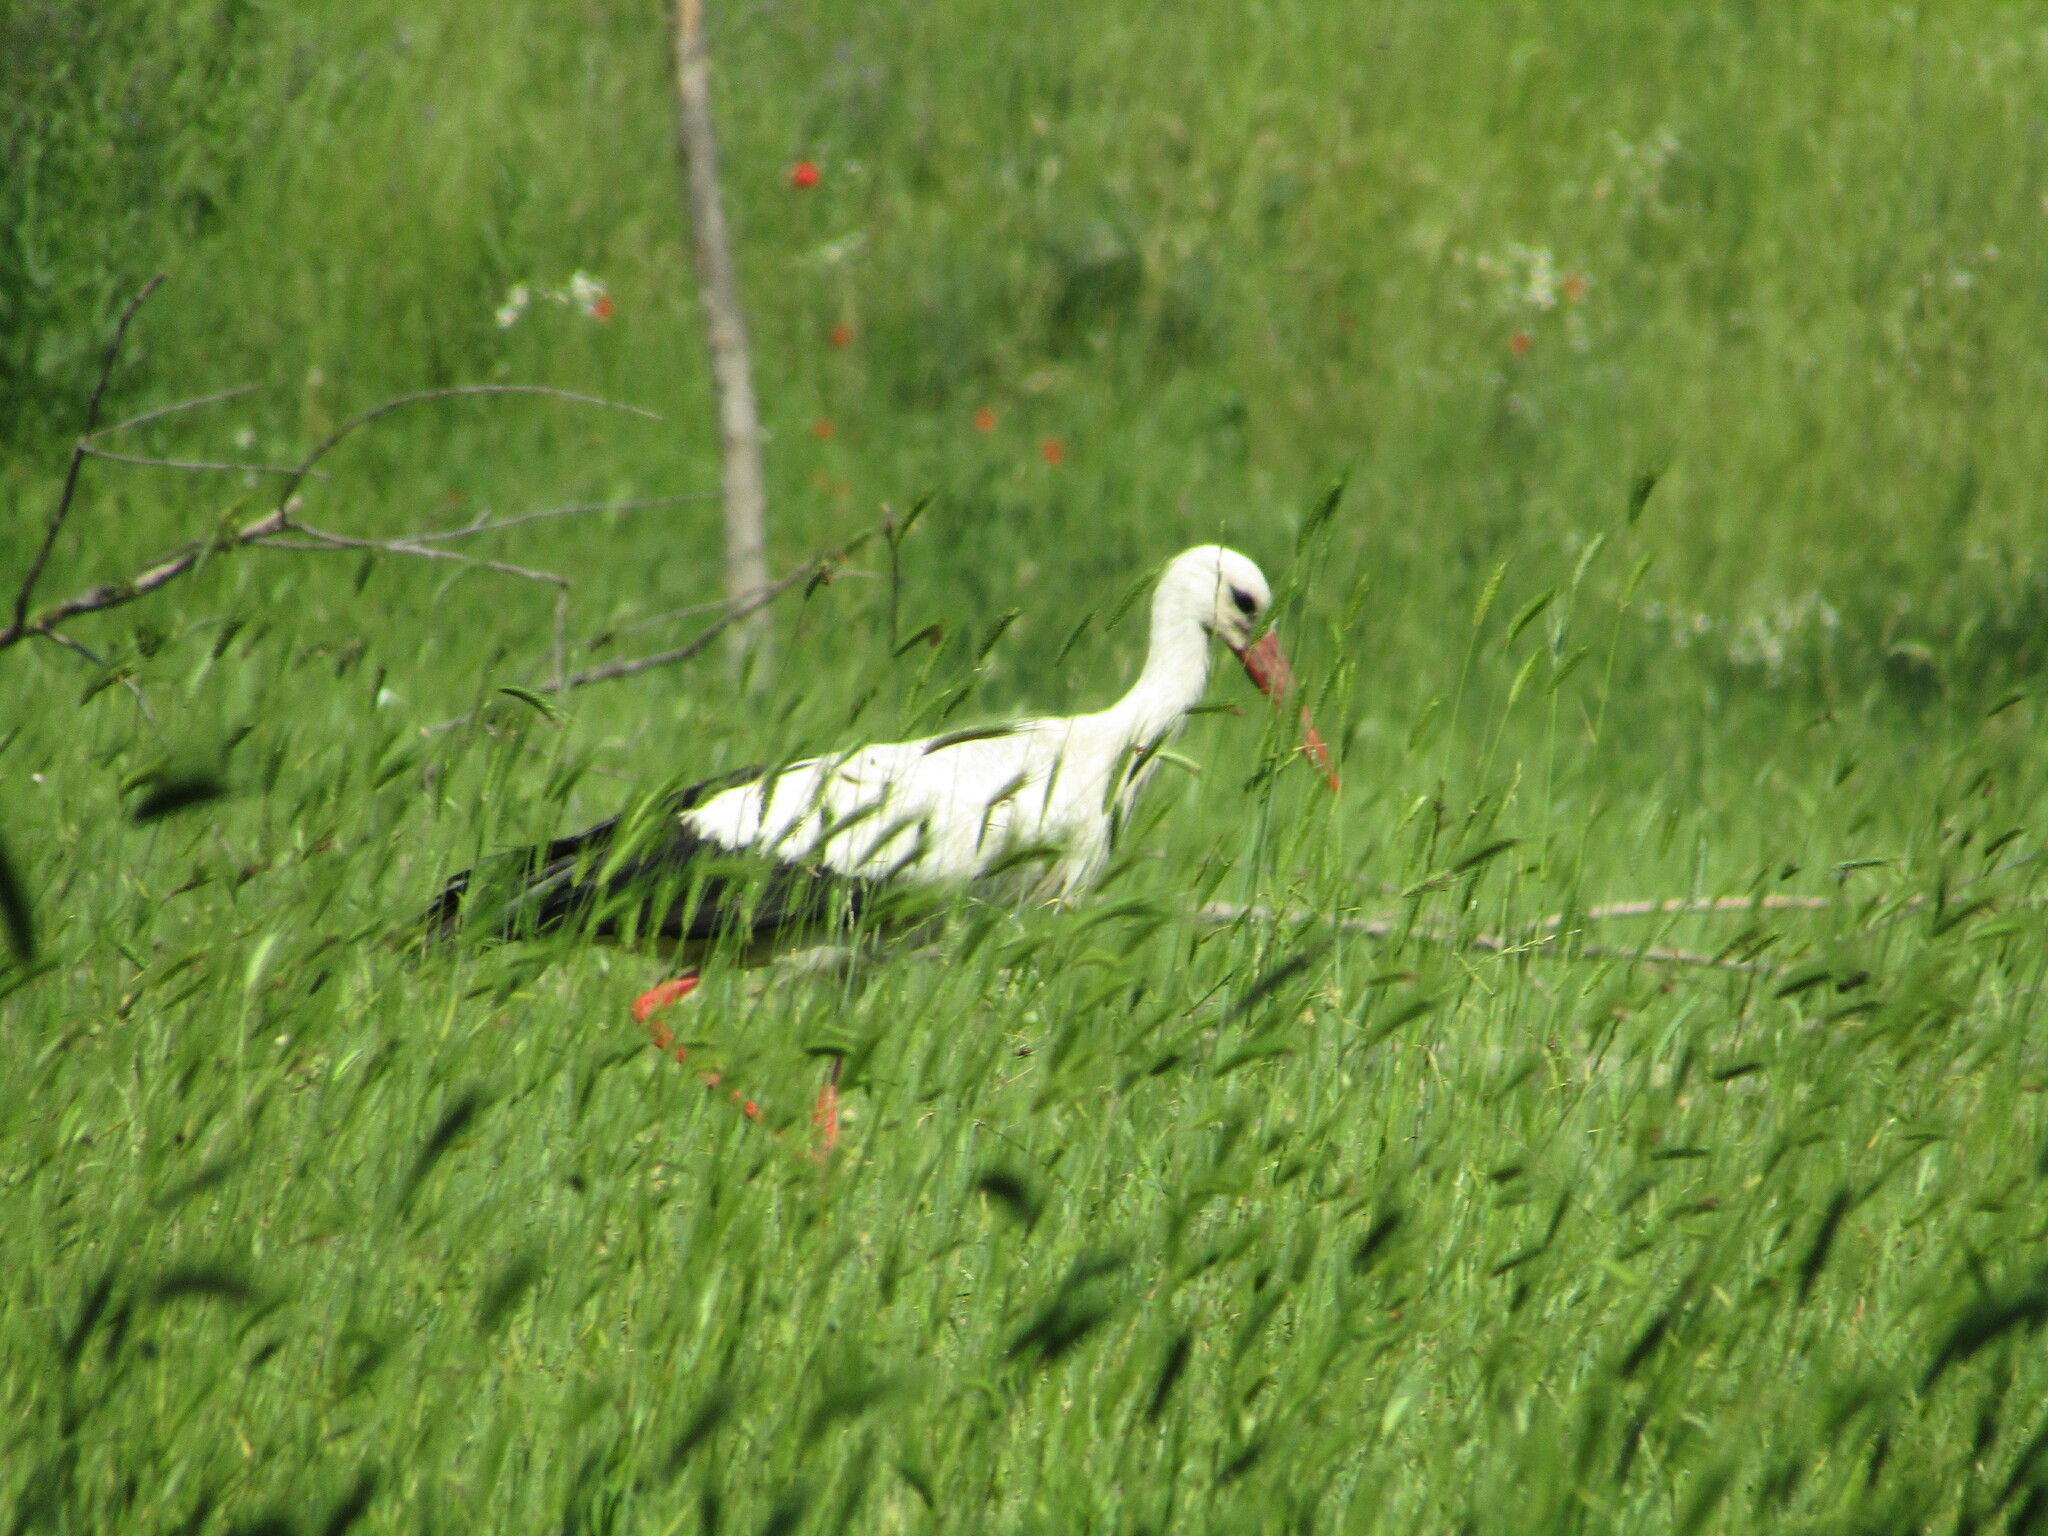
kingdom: Animalia
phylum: Chordata
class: Aves
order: Ciconiiformes
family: Ciconiidae
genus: Ciconia
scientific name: Ciconia ciconia
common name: White stork
